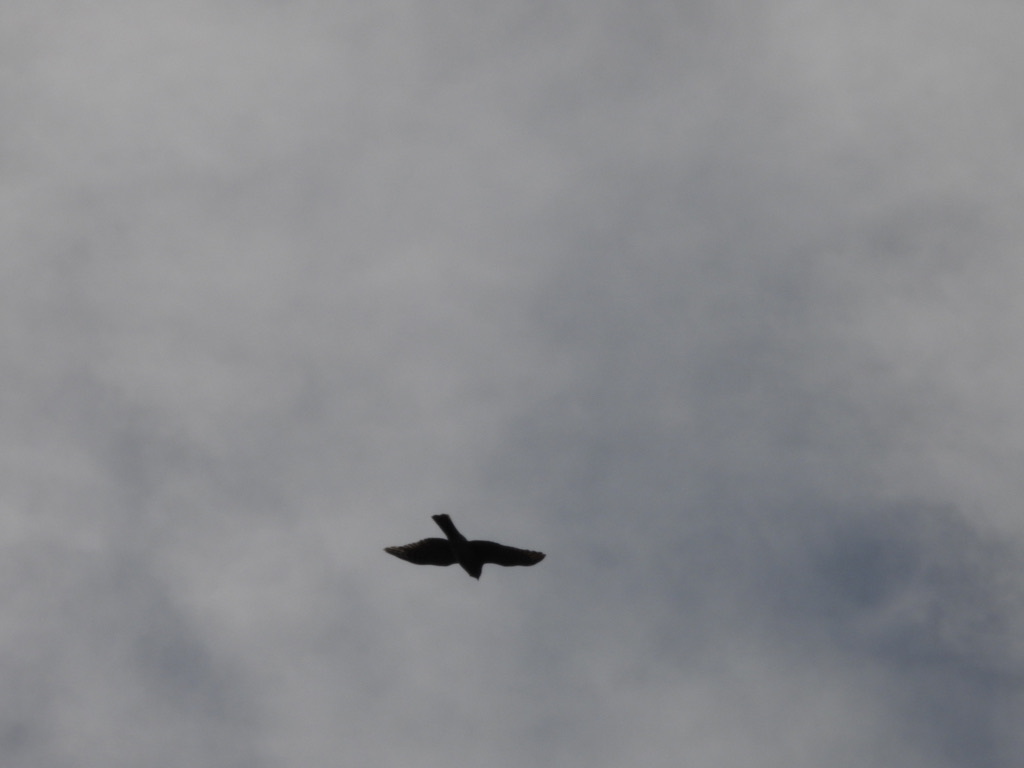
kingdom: Animalia
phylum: Chordata
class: Aves
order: Accipitriformes
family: Accipitridae
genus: Accipiter
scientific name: Accipiter cooperii
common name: Cooper's hawk
